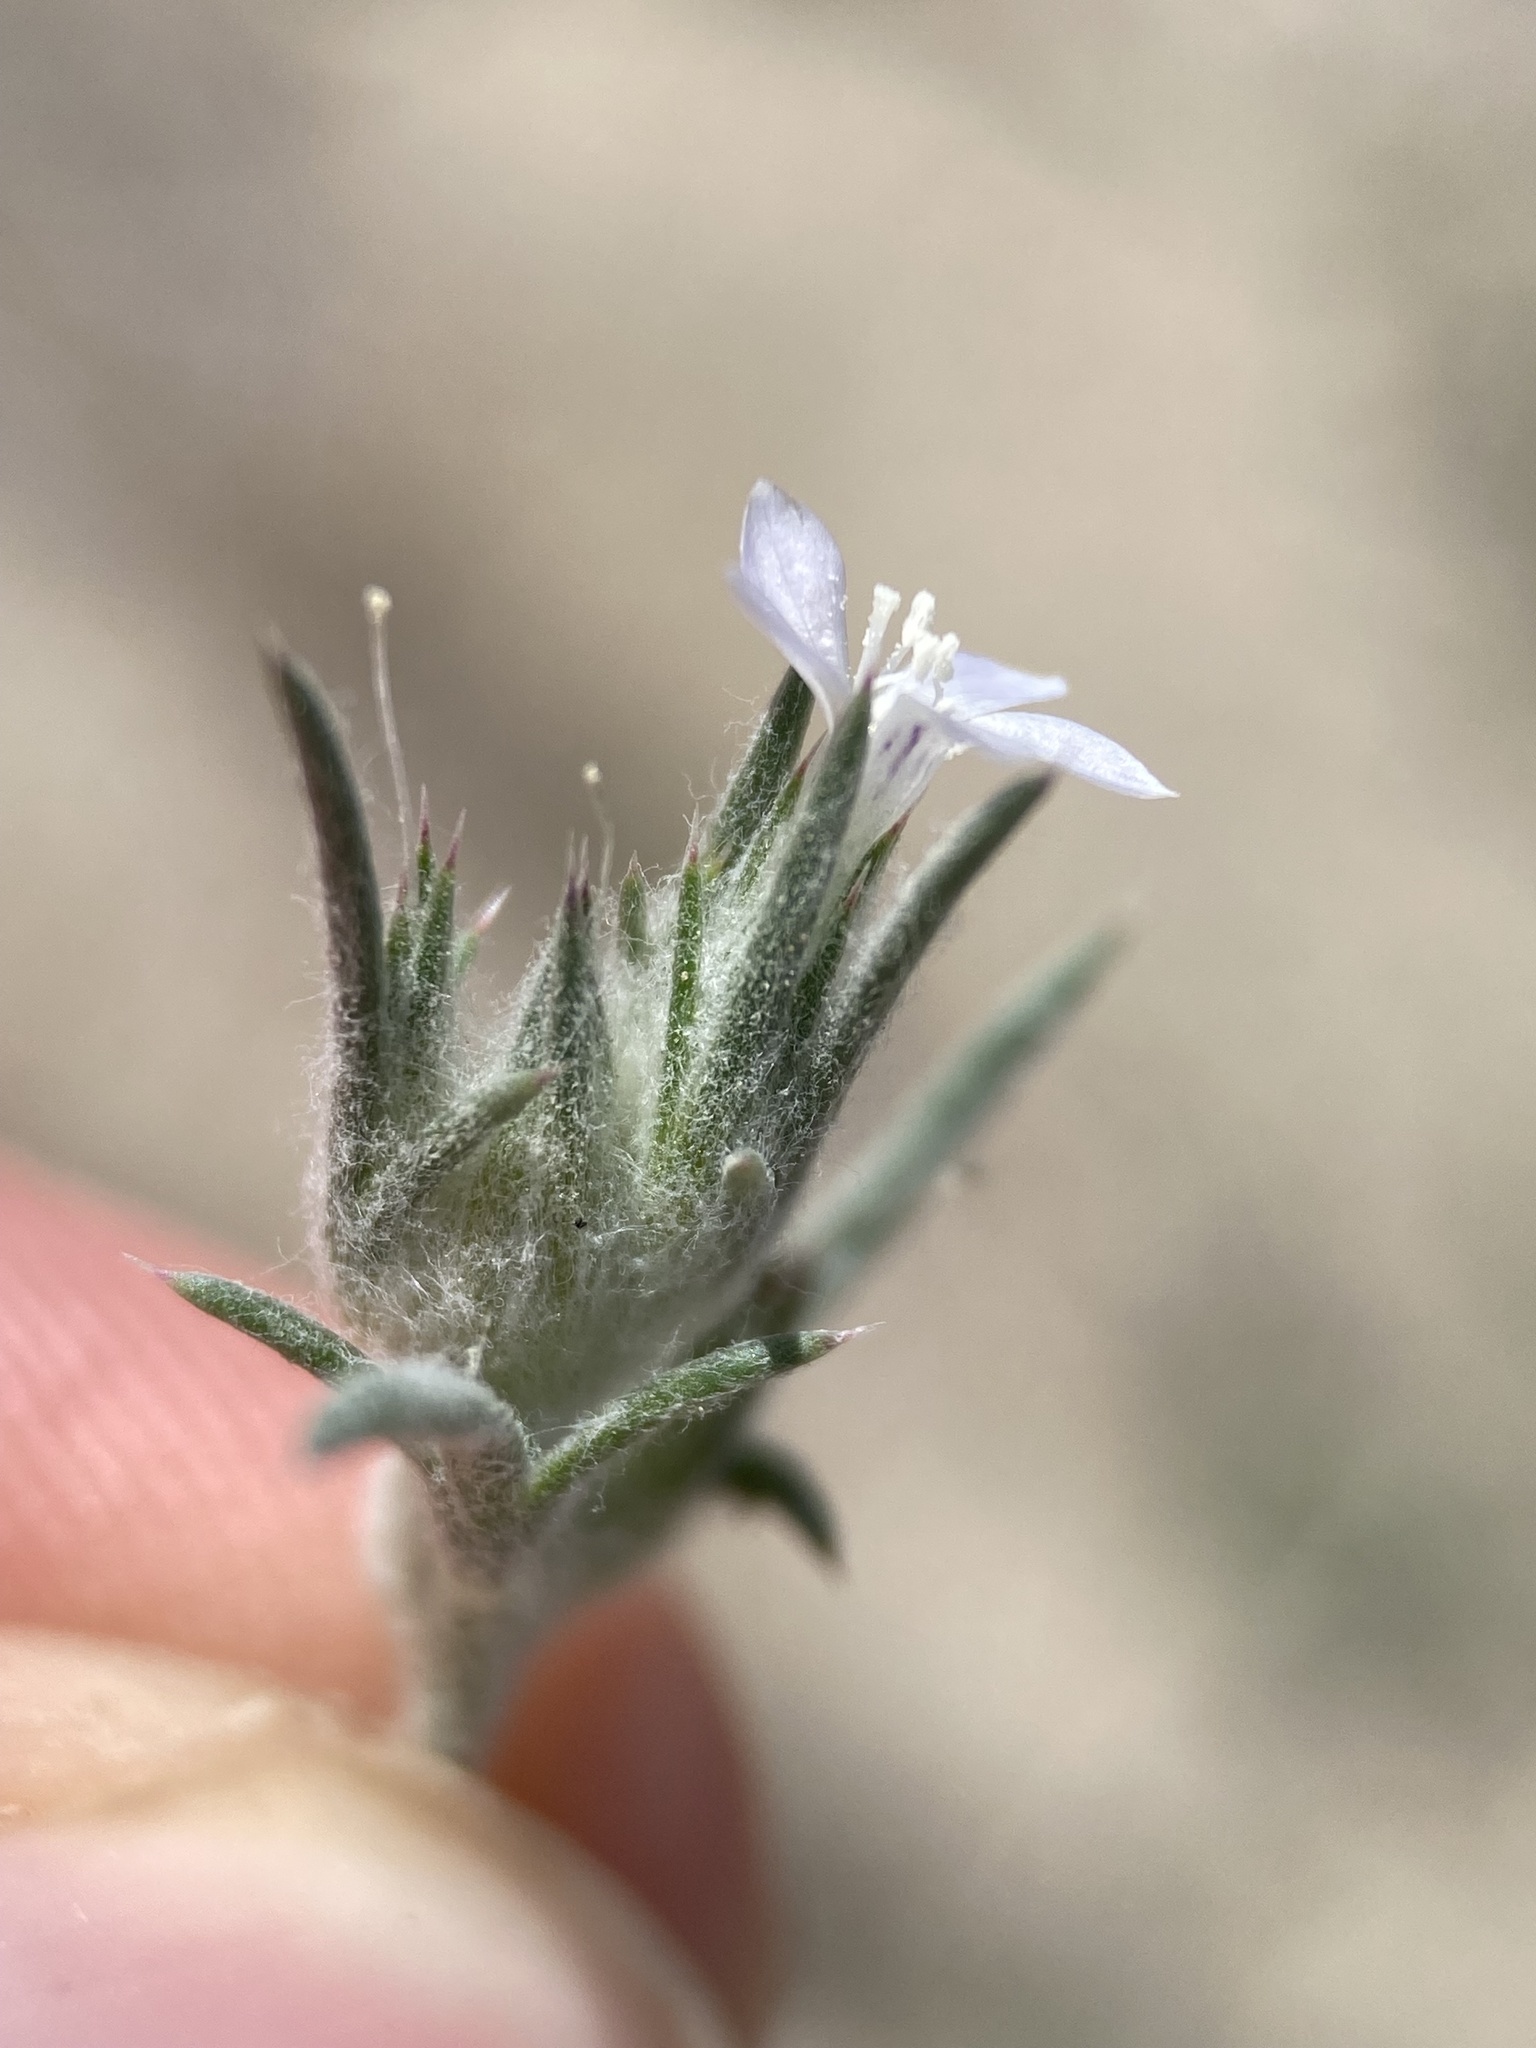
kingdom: Plantae
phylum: Tracheophyta
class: Magnoliopsida
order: Ericales
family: Polemoniaceae
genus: Eriastrum
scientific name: Eriastrum wilcoxii
